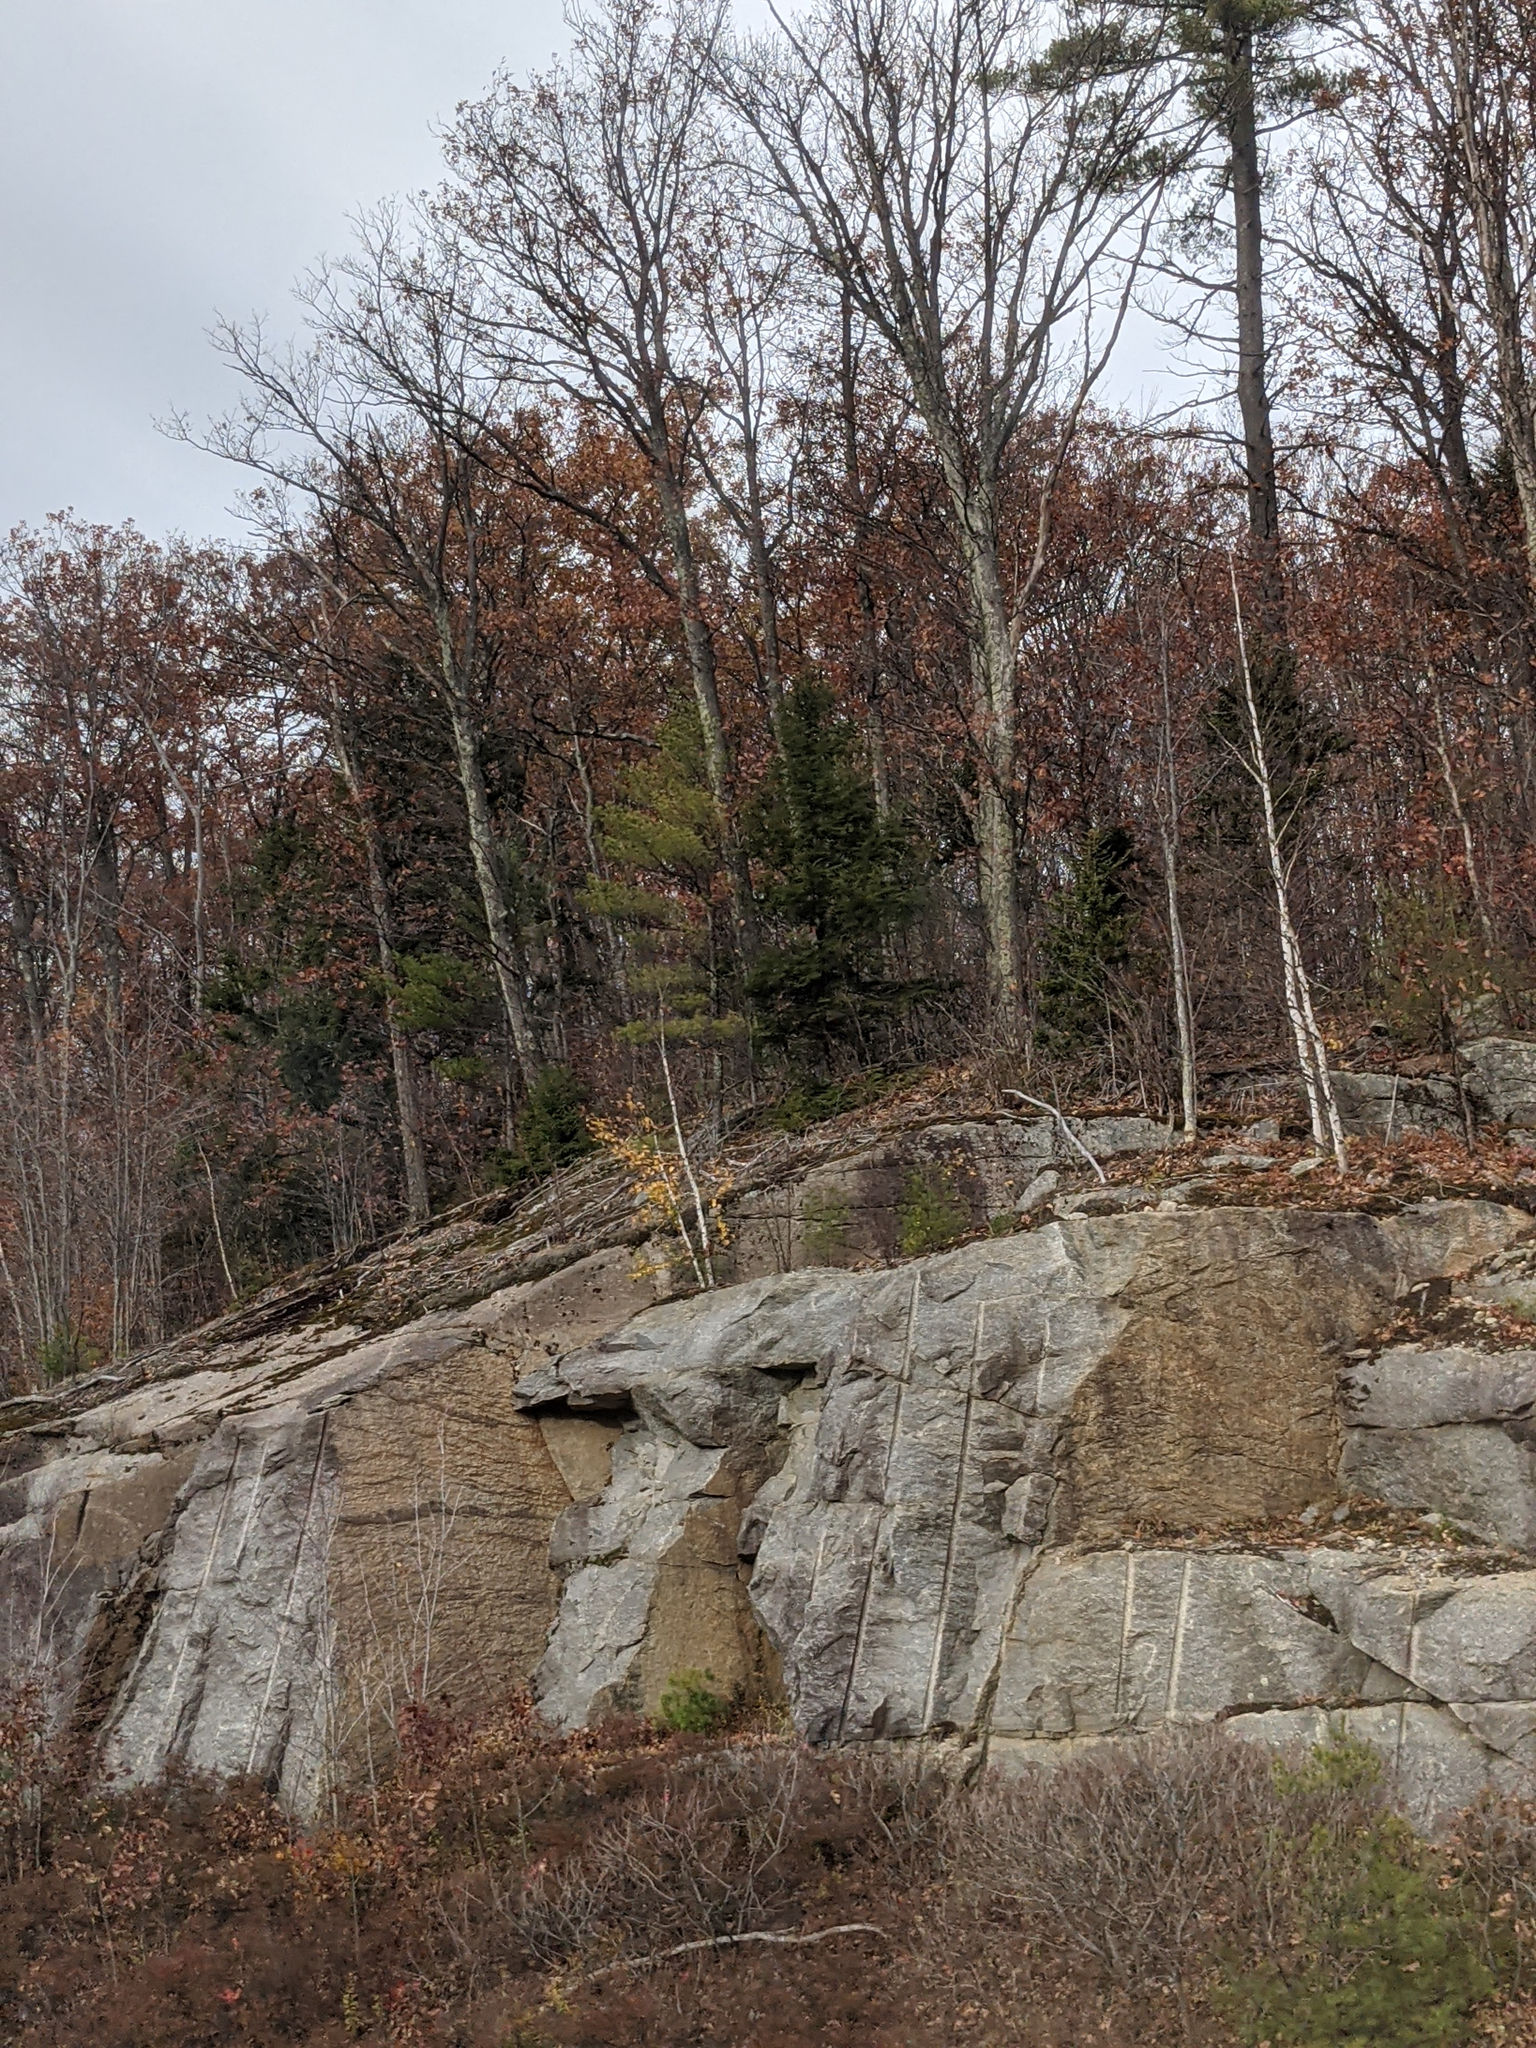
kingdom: Plantae
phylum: Tracheophyta
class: Pinopsida
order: Pinales
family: Pinaceae
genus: Pinus
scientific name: Pinus strobus
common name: Weymouth pine
